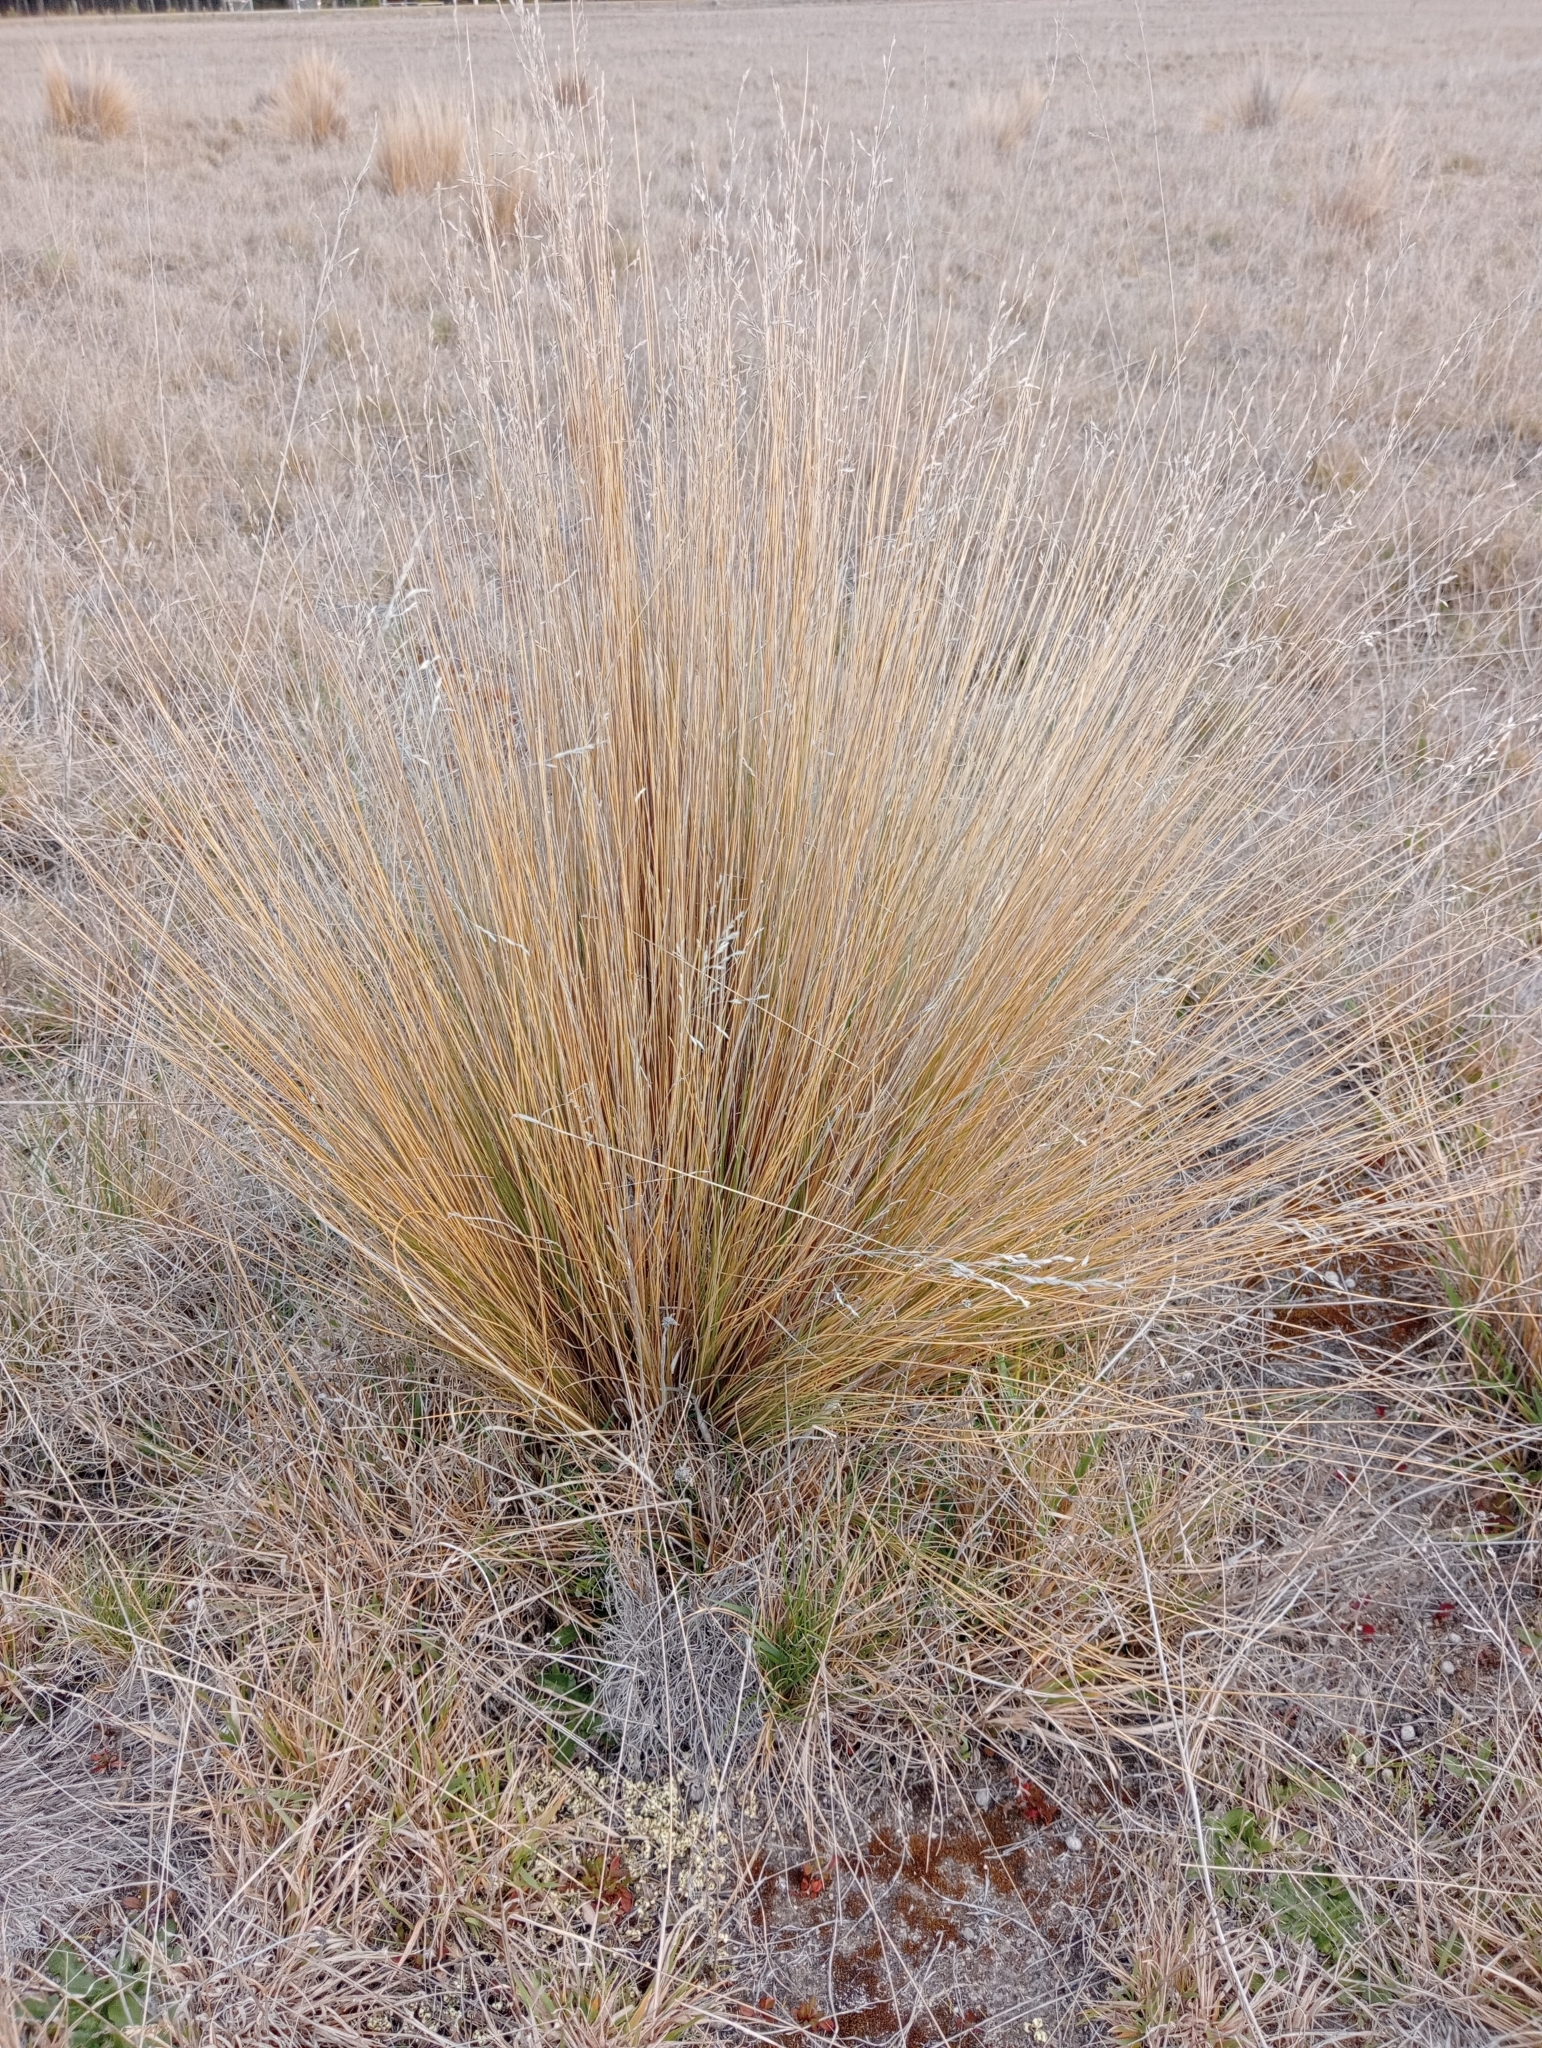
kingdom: Plantae
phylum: Tracheophyta
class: Liliopsida
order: Poales
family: Poaceae
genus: Poa
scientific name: Poa cita
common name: Silver tussock
